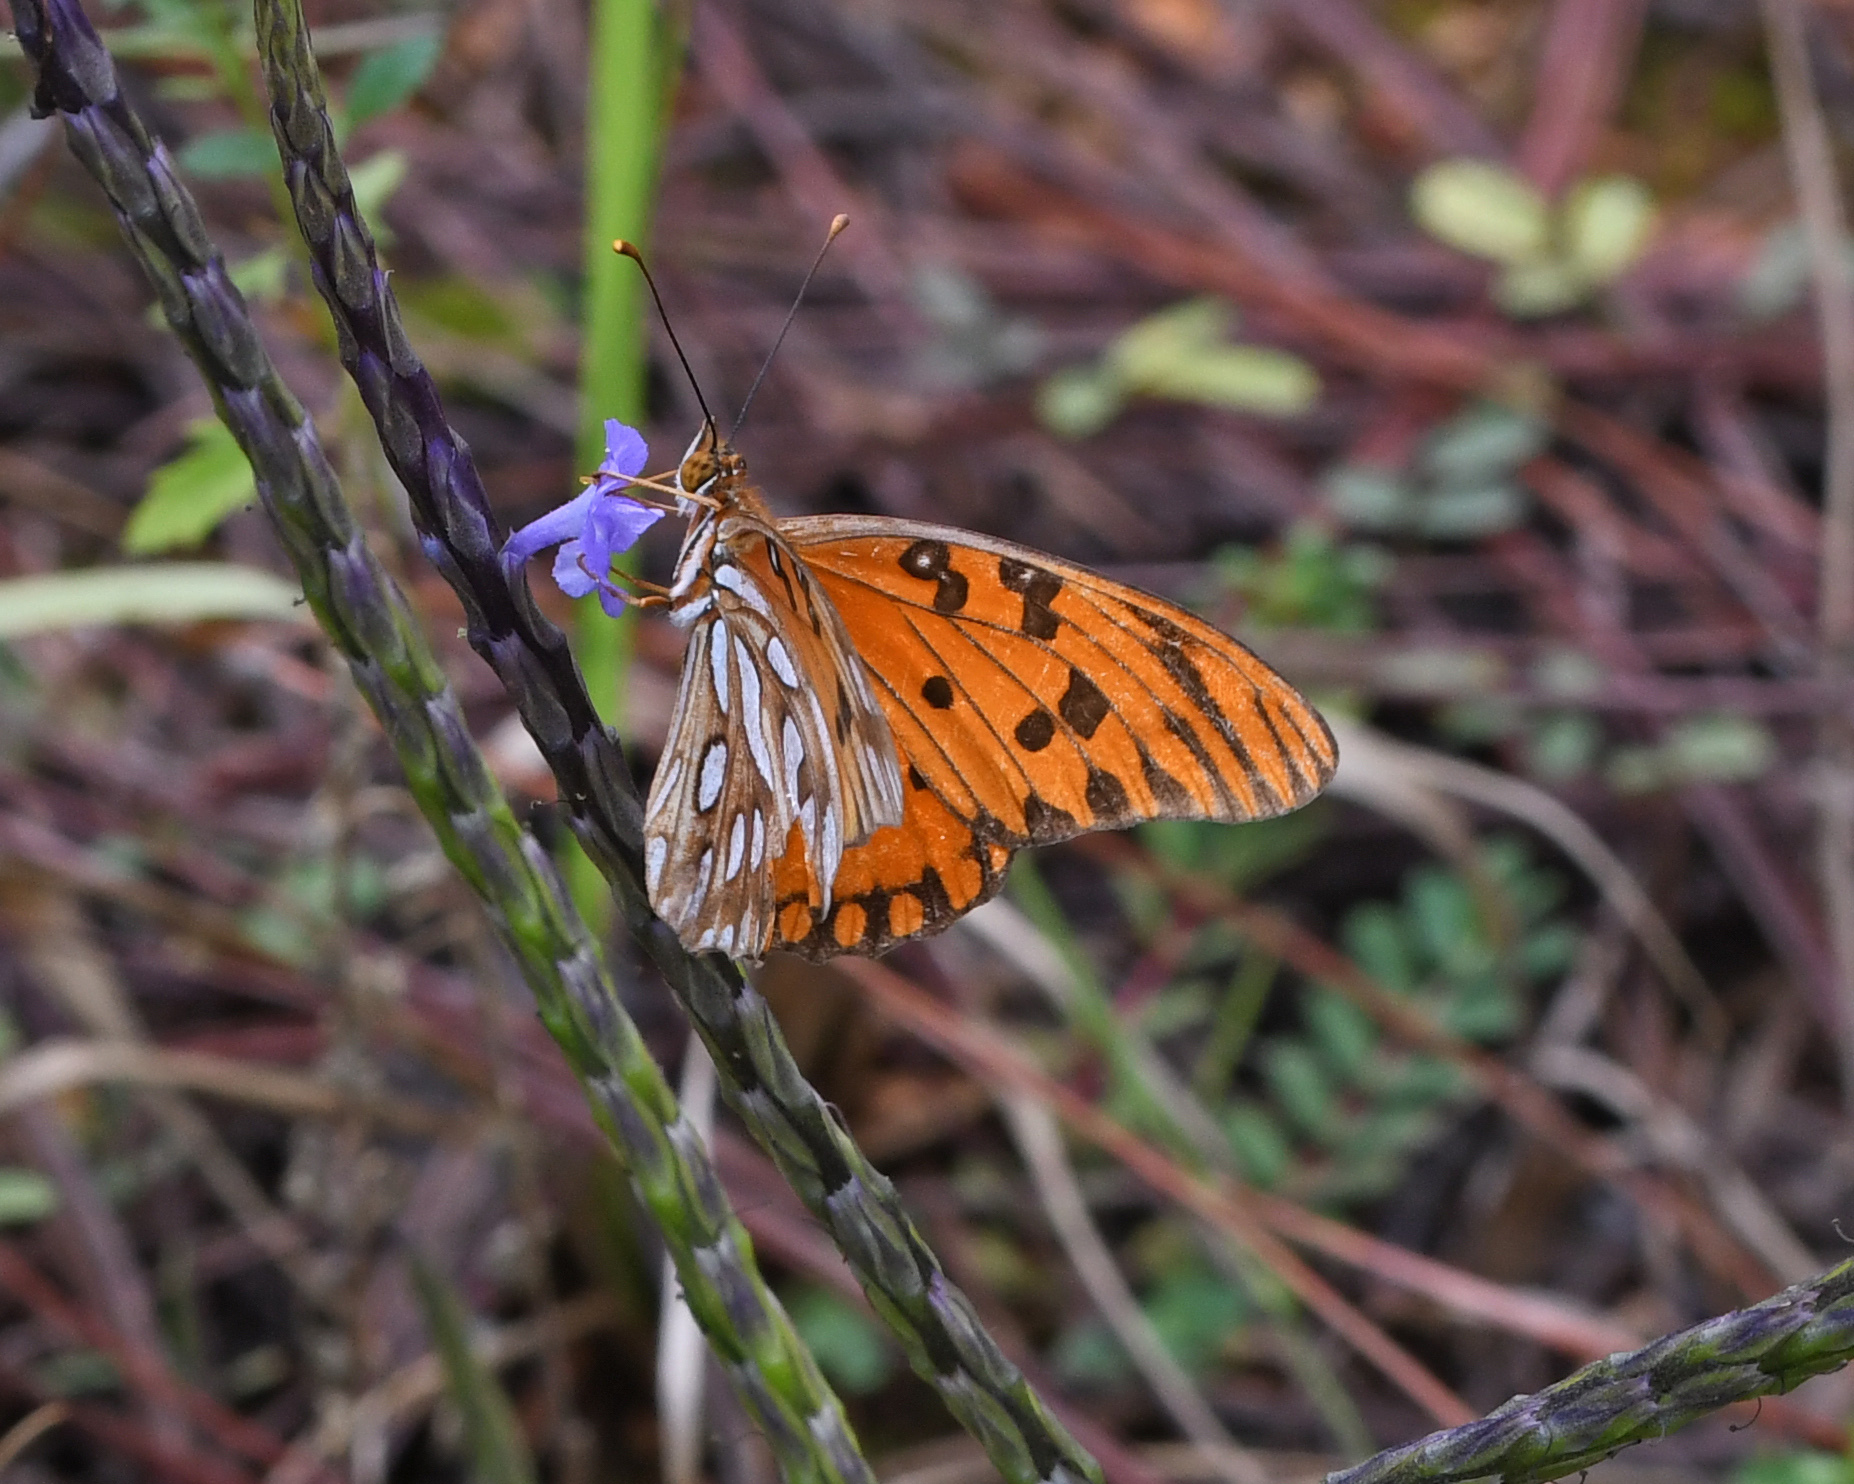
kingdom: Animalia
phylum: Arthropoda
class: Insecta
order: Lepidoptera
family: Nymphalidae
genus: Dione
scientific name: Dione vanillae
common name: Gulf fritillary
